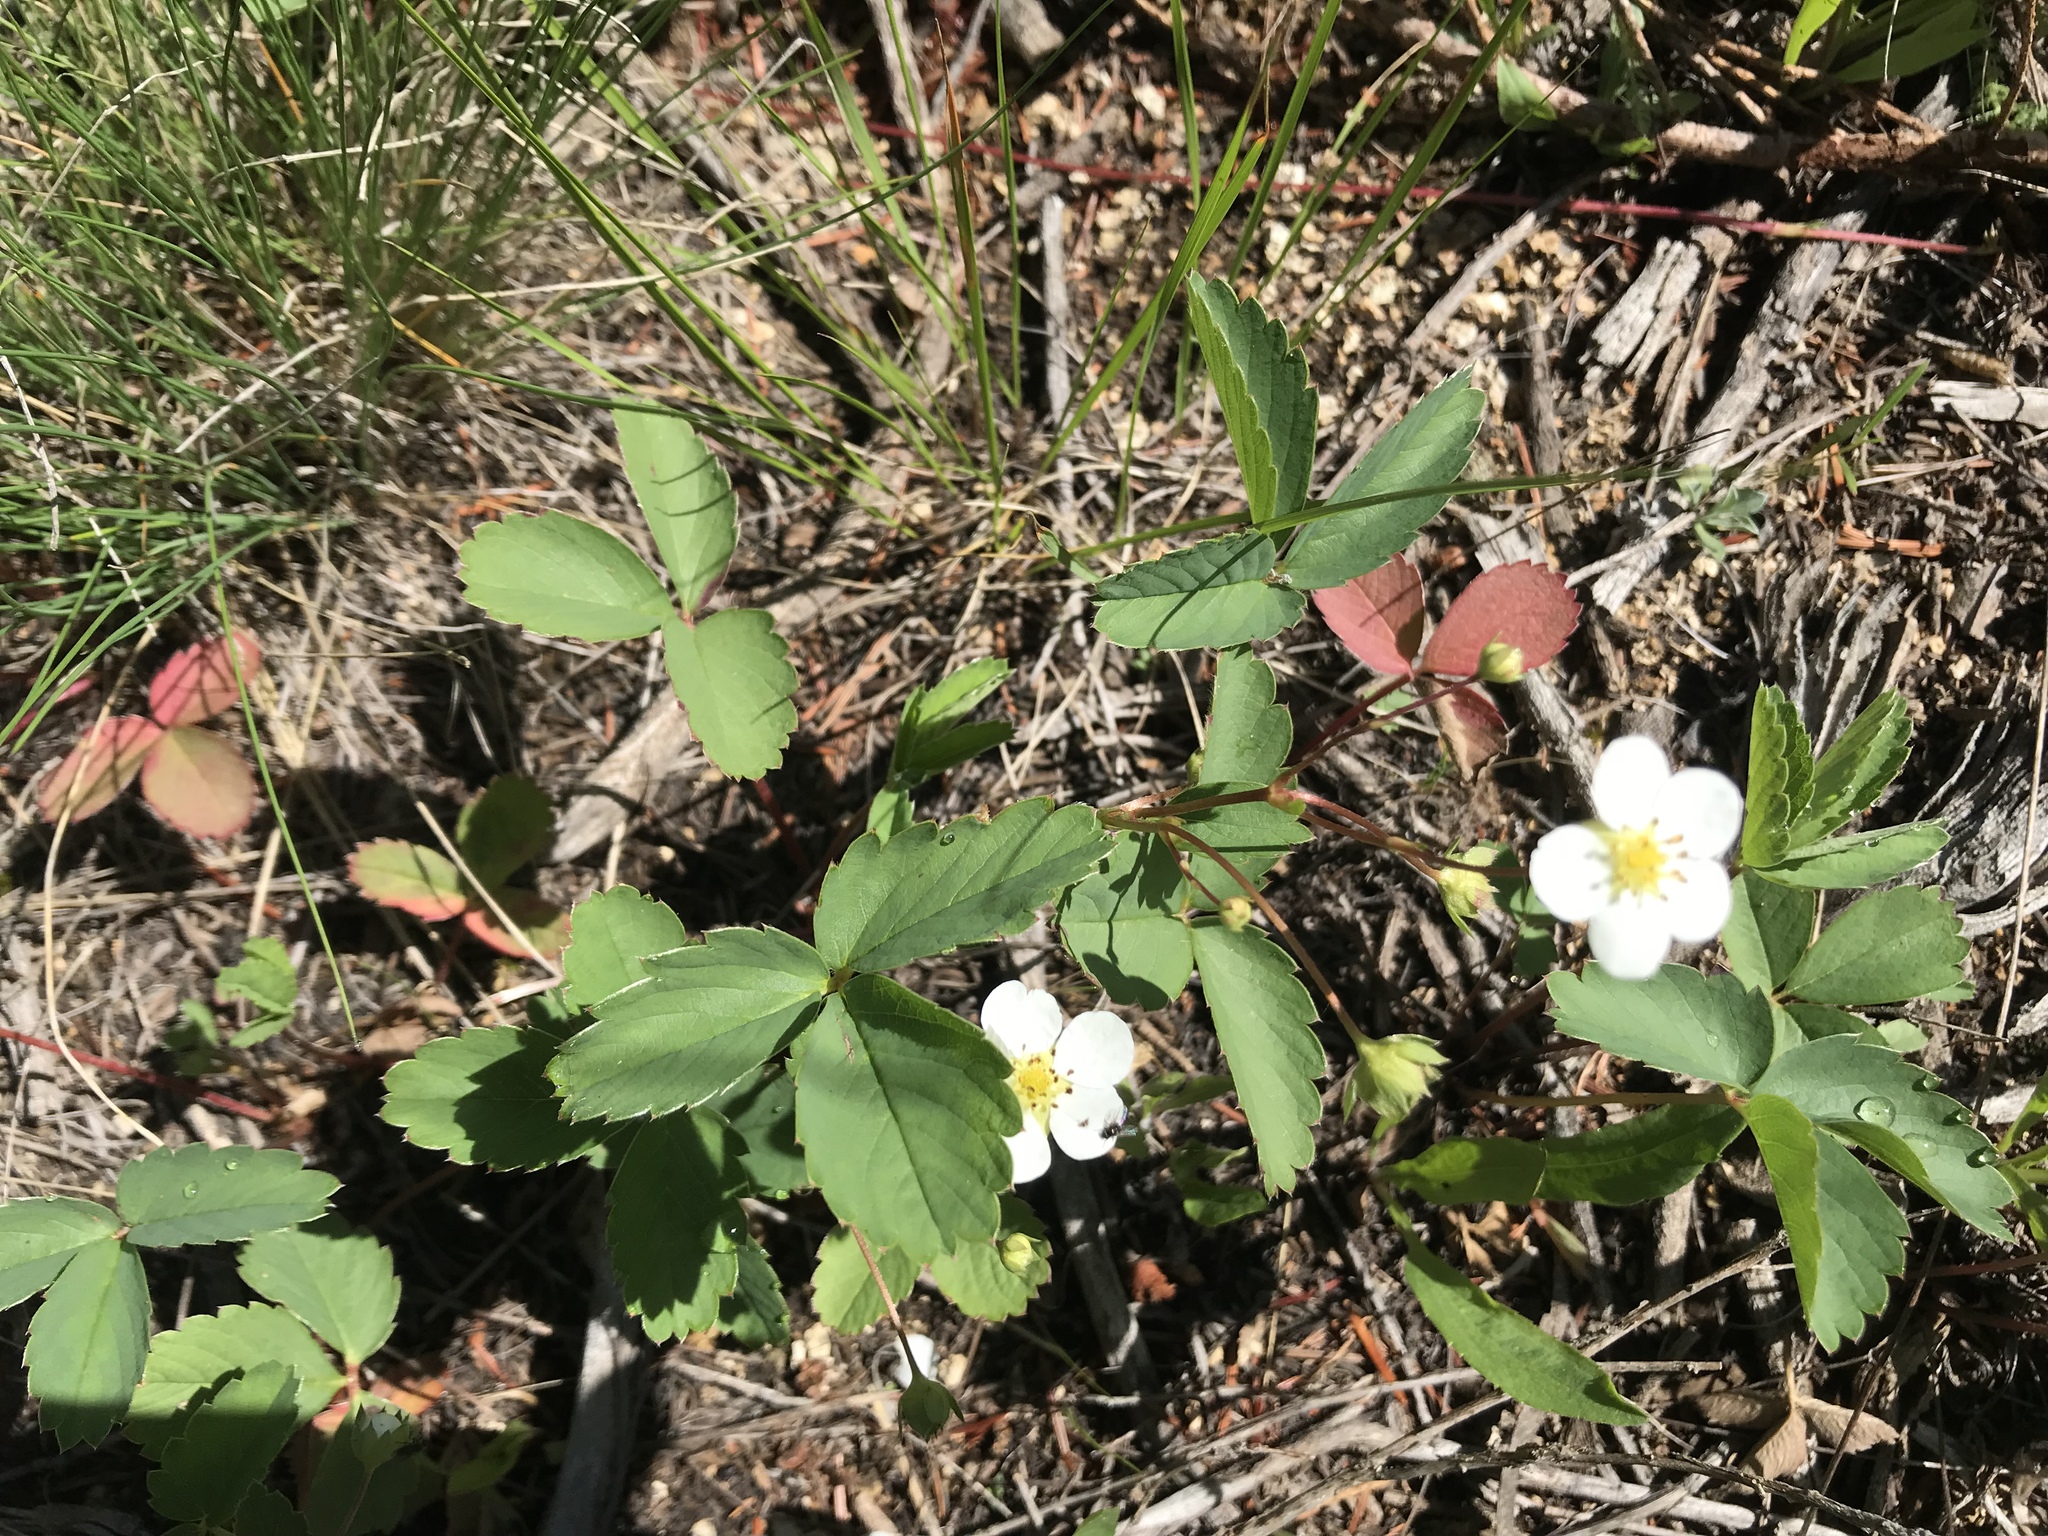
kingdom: Plantae
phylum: Tracheophyta
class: Magnoliopsida
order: Rosales
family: Rosaceae
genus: Fragaria
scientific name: Fragaria virginiana
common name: Thickleaved wild strawberry
